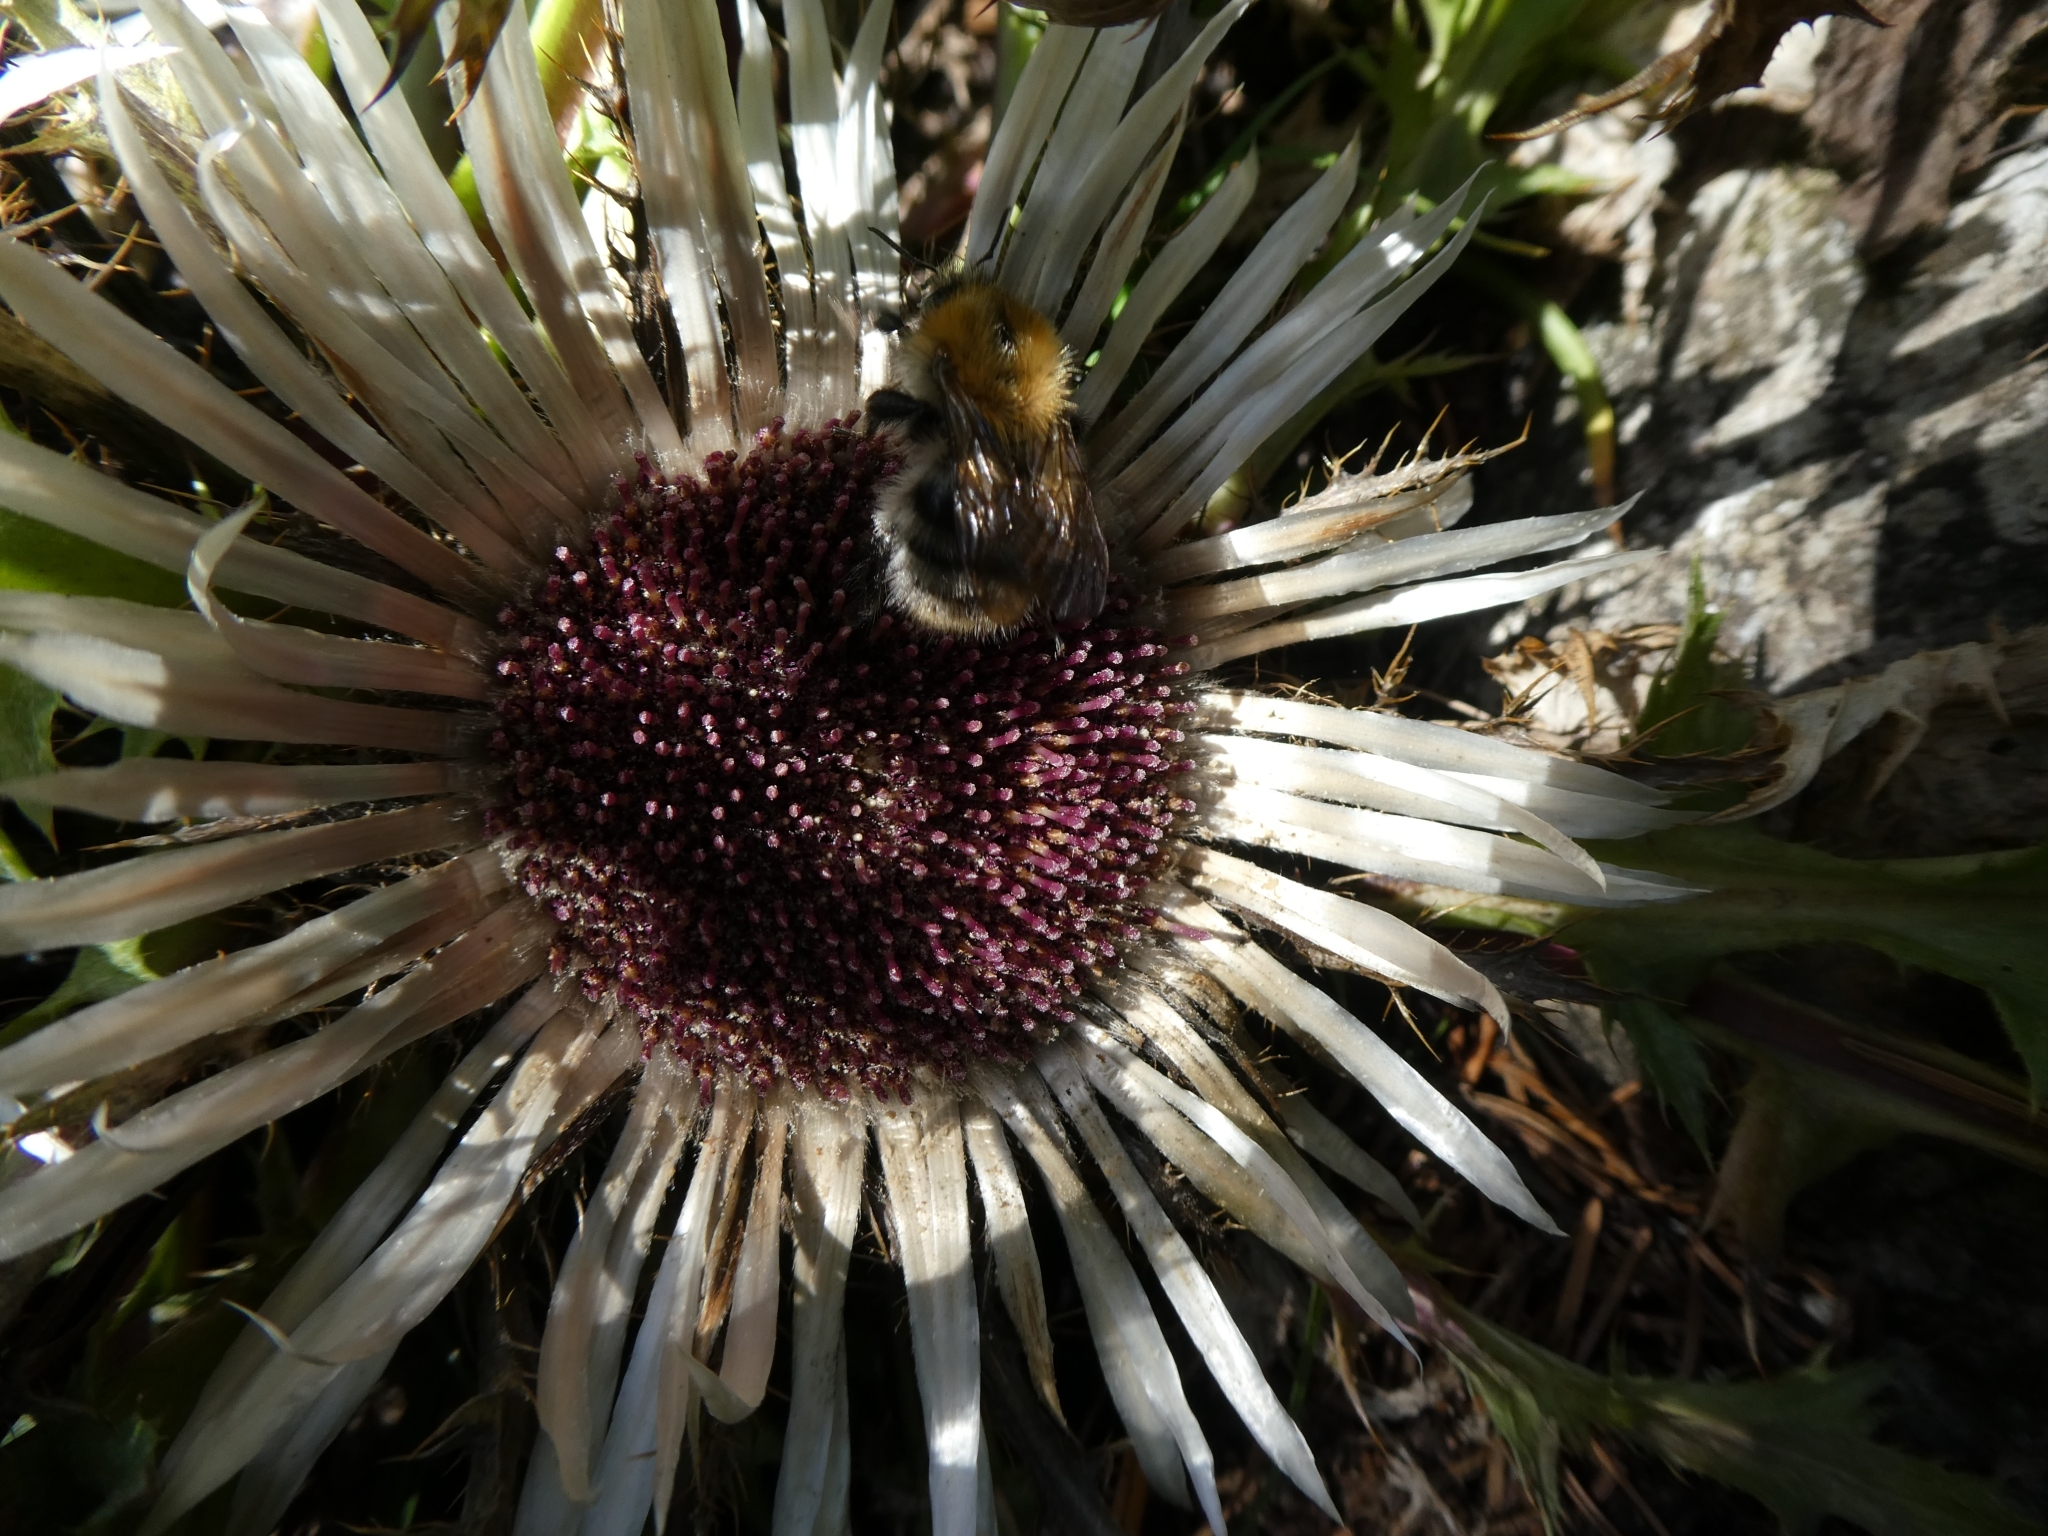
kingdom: Animalia
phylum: Arthropoda
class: Insecta
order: Hymenoptera
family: Apidae
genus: Bombus
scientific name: Bombus pascuorum
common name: Common carder bee
